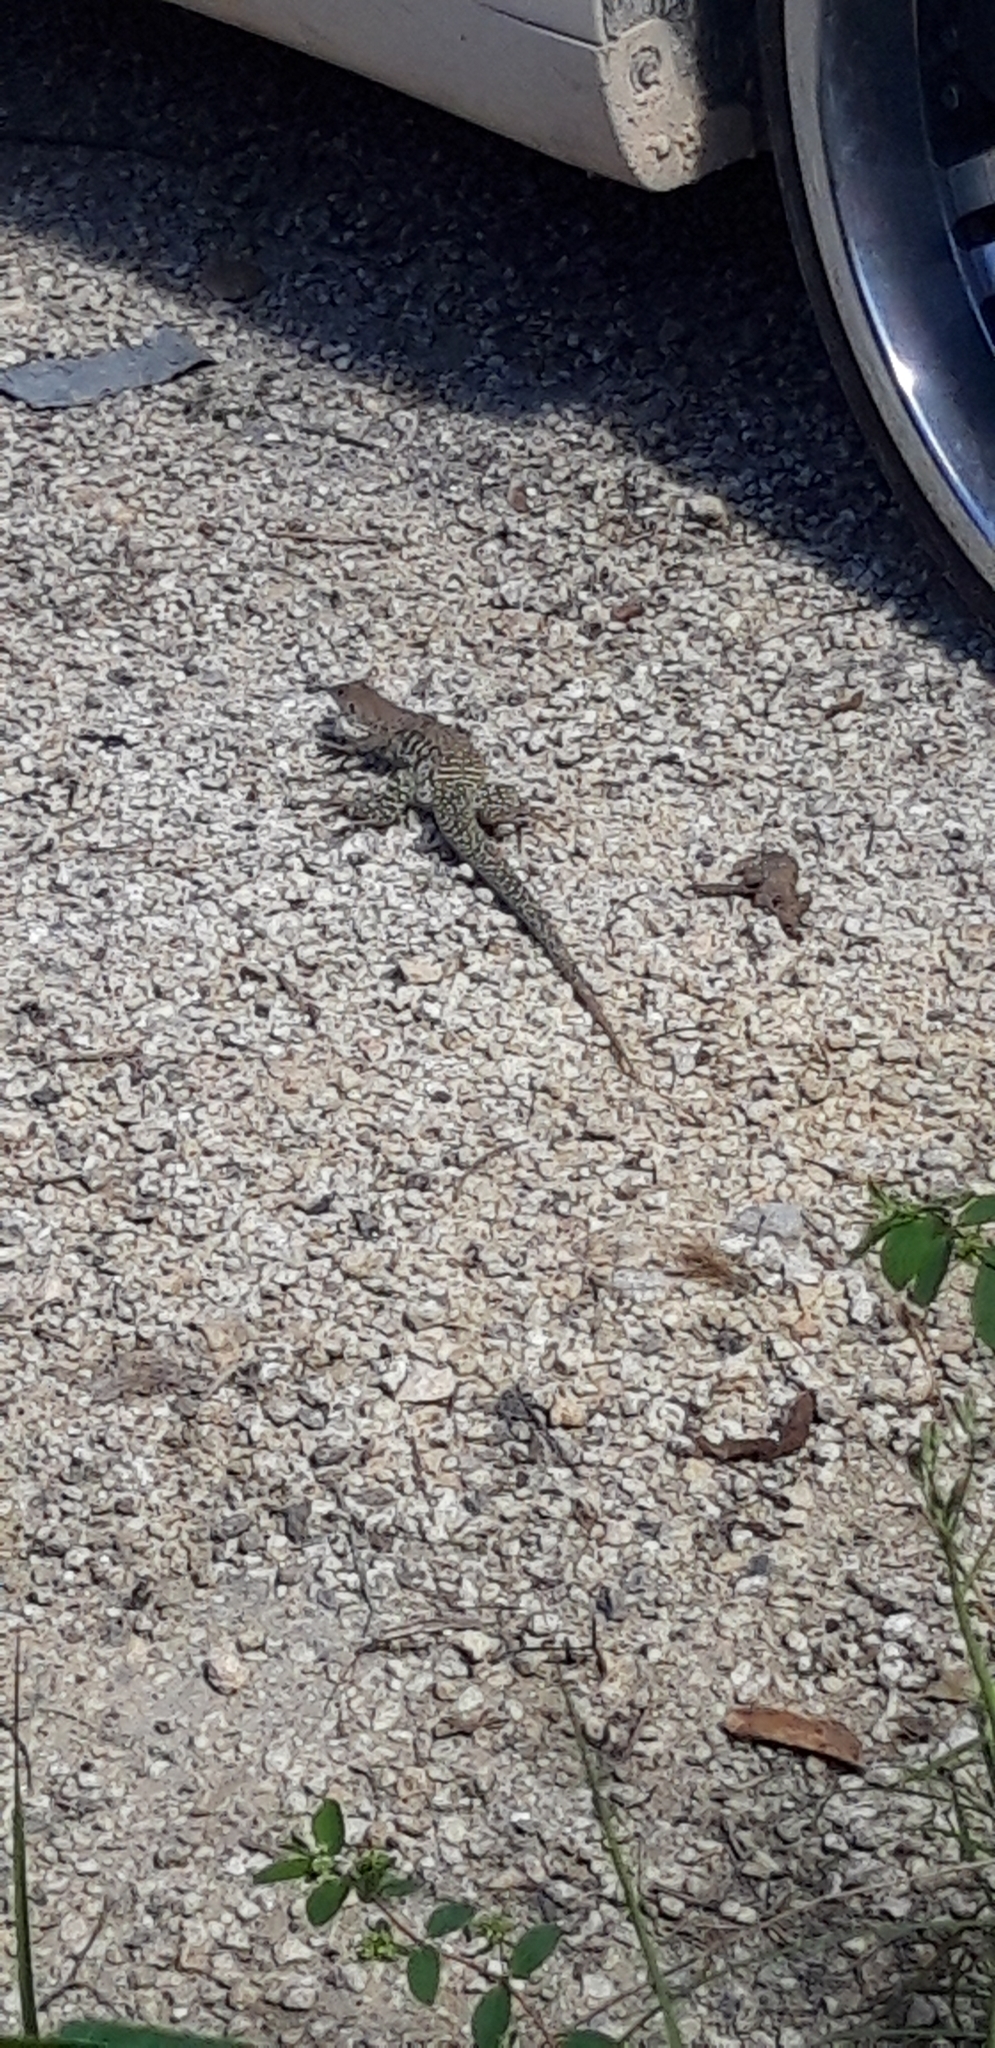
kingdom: Animalia
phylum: Chordata
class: Squamata
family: Teiidae
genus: Pholidoscelis
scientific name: Pholidoscelis plei
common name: Anguilla bank ameiva
